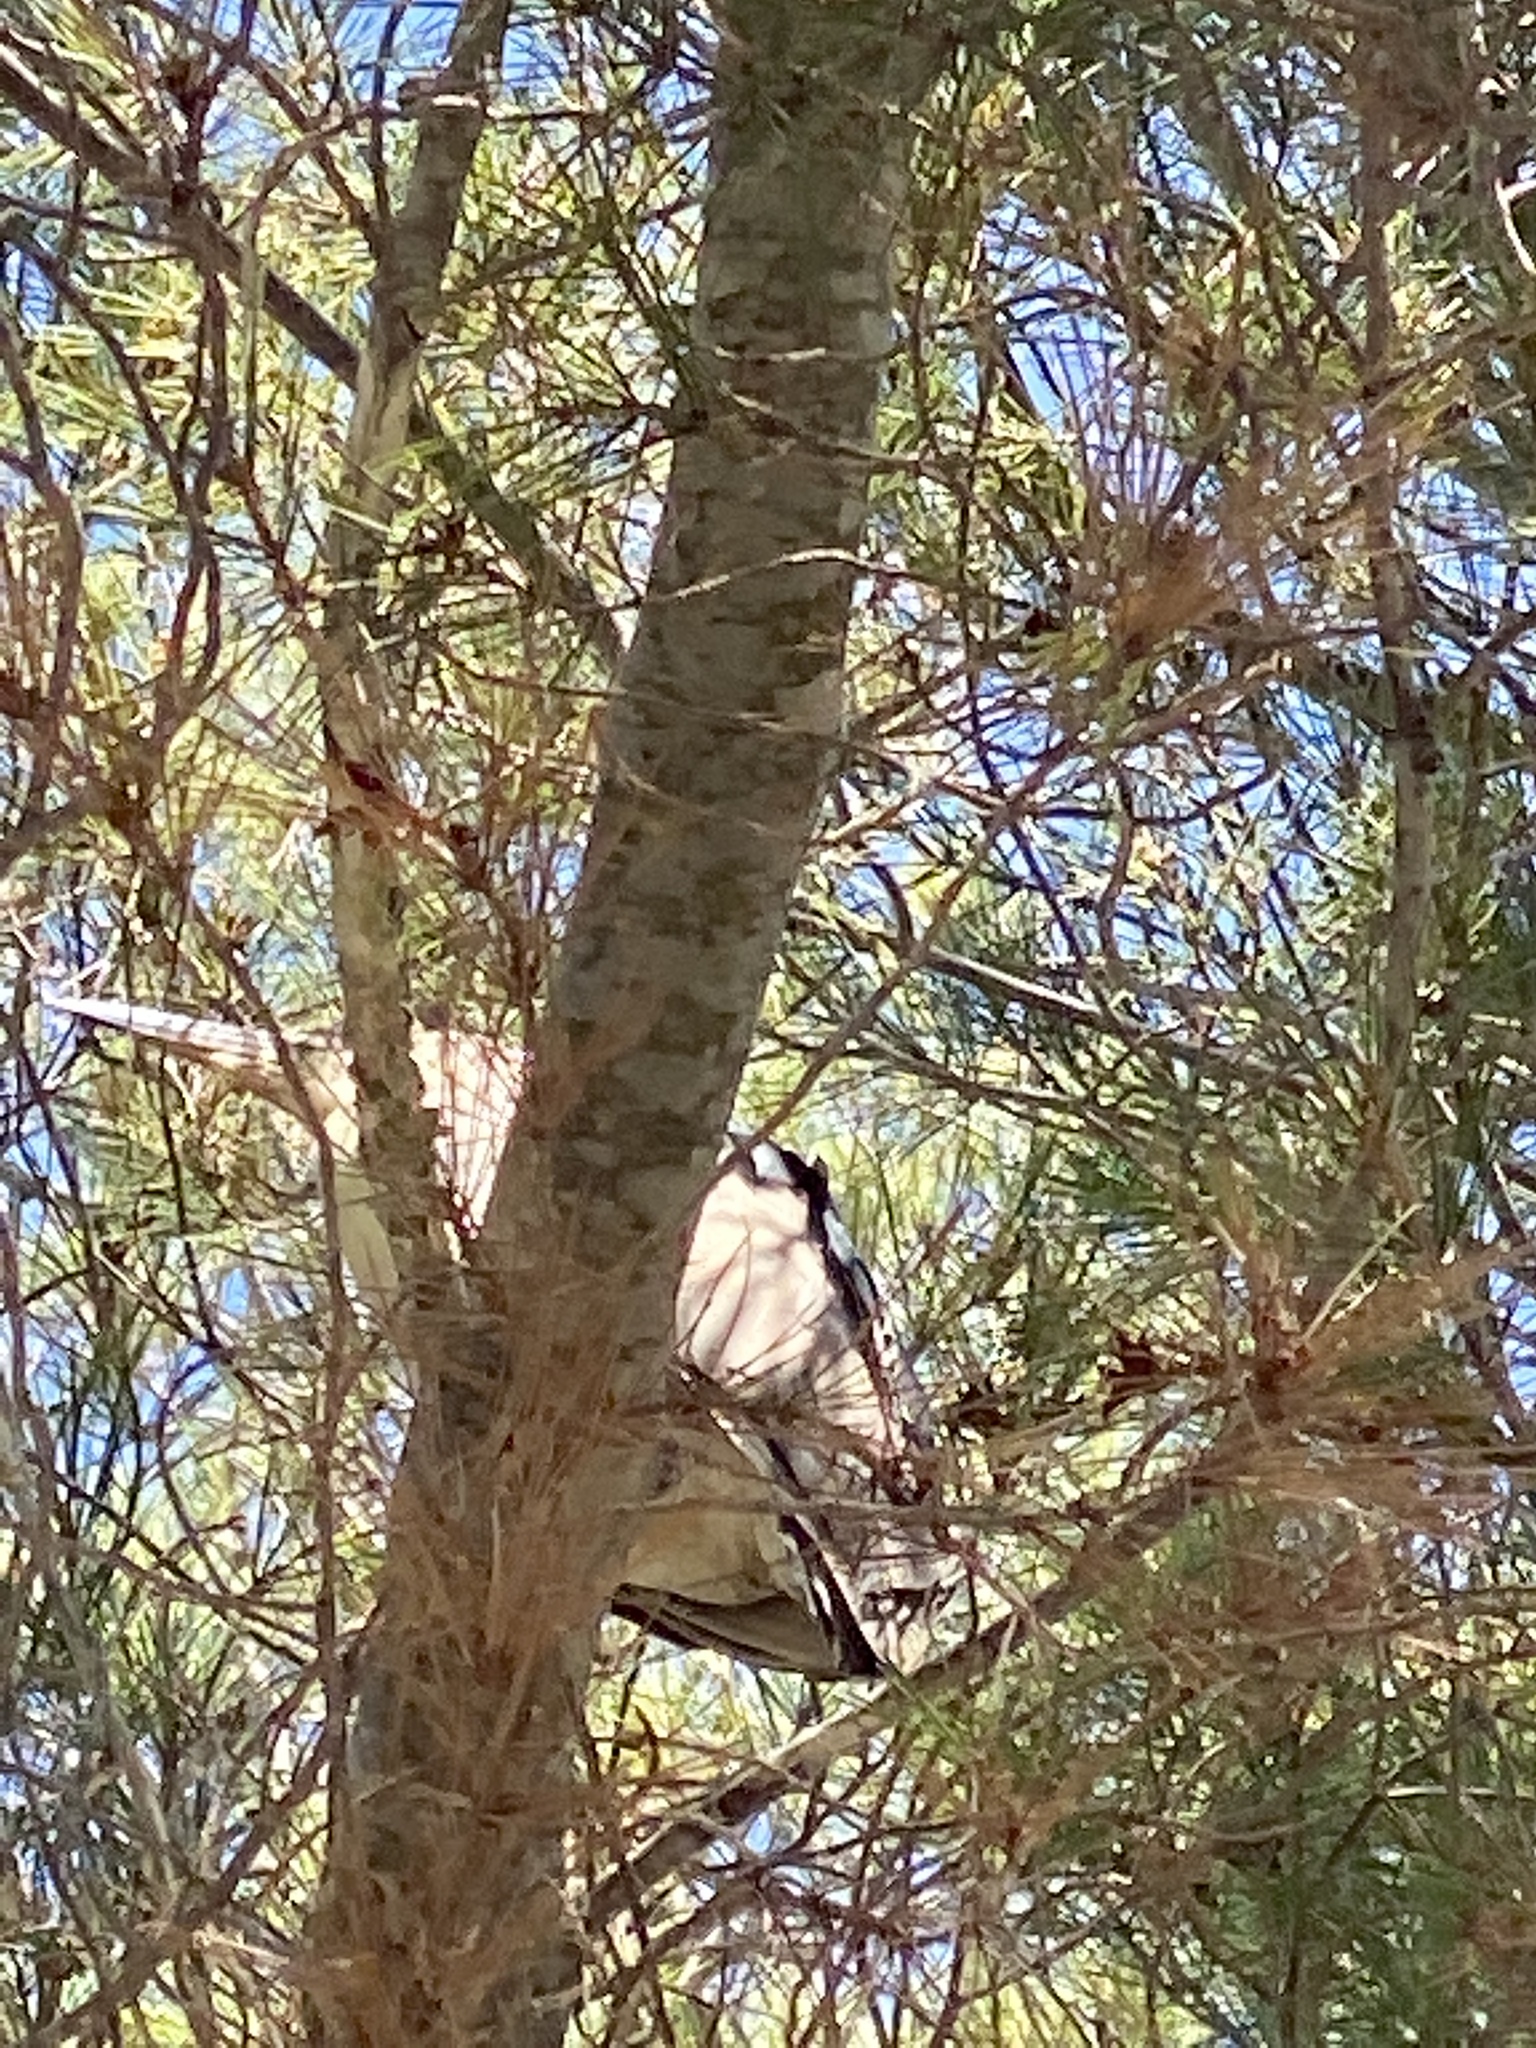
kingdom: Animalia
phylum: Chordata
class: Aves
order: Pelecaniformes
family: Ardeidae
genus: Nycticorax
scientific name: Nycticorax nycticorax
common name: Black-crowned night heron
